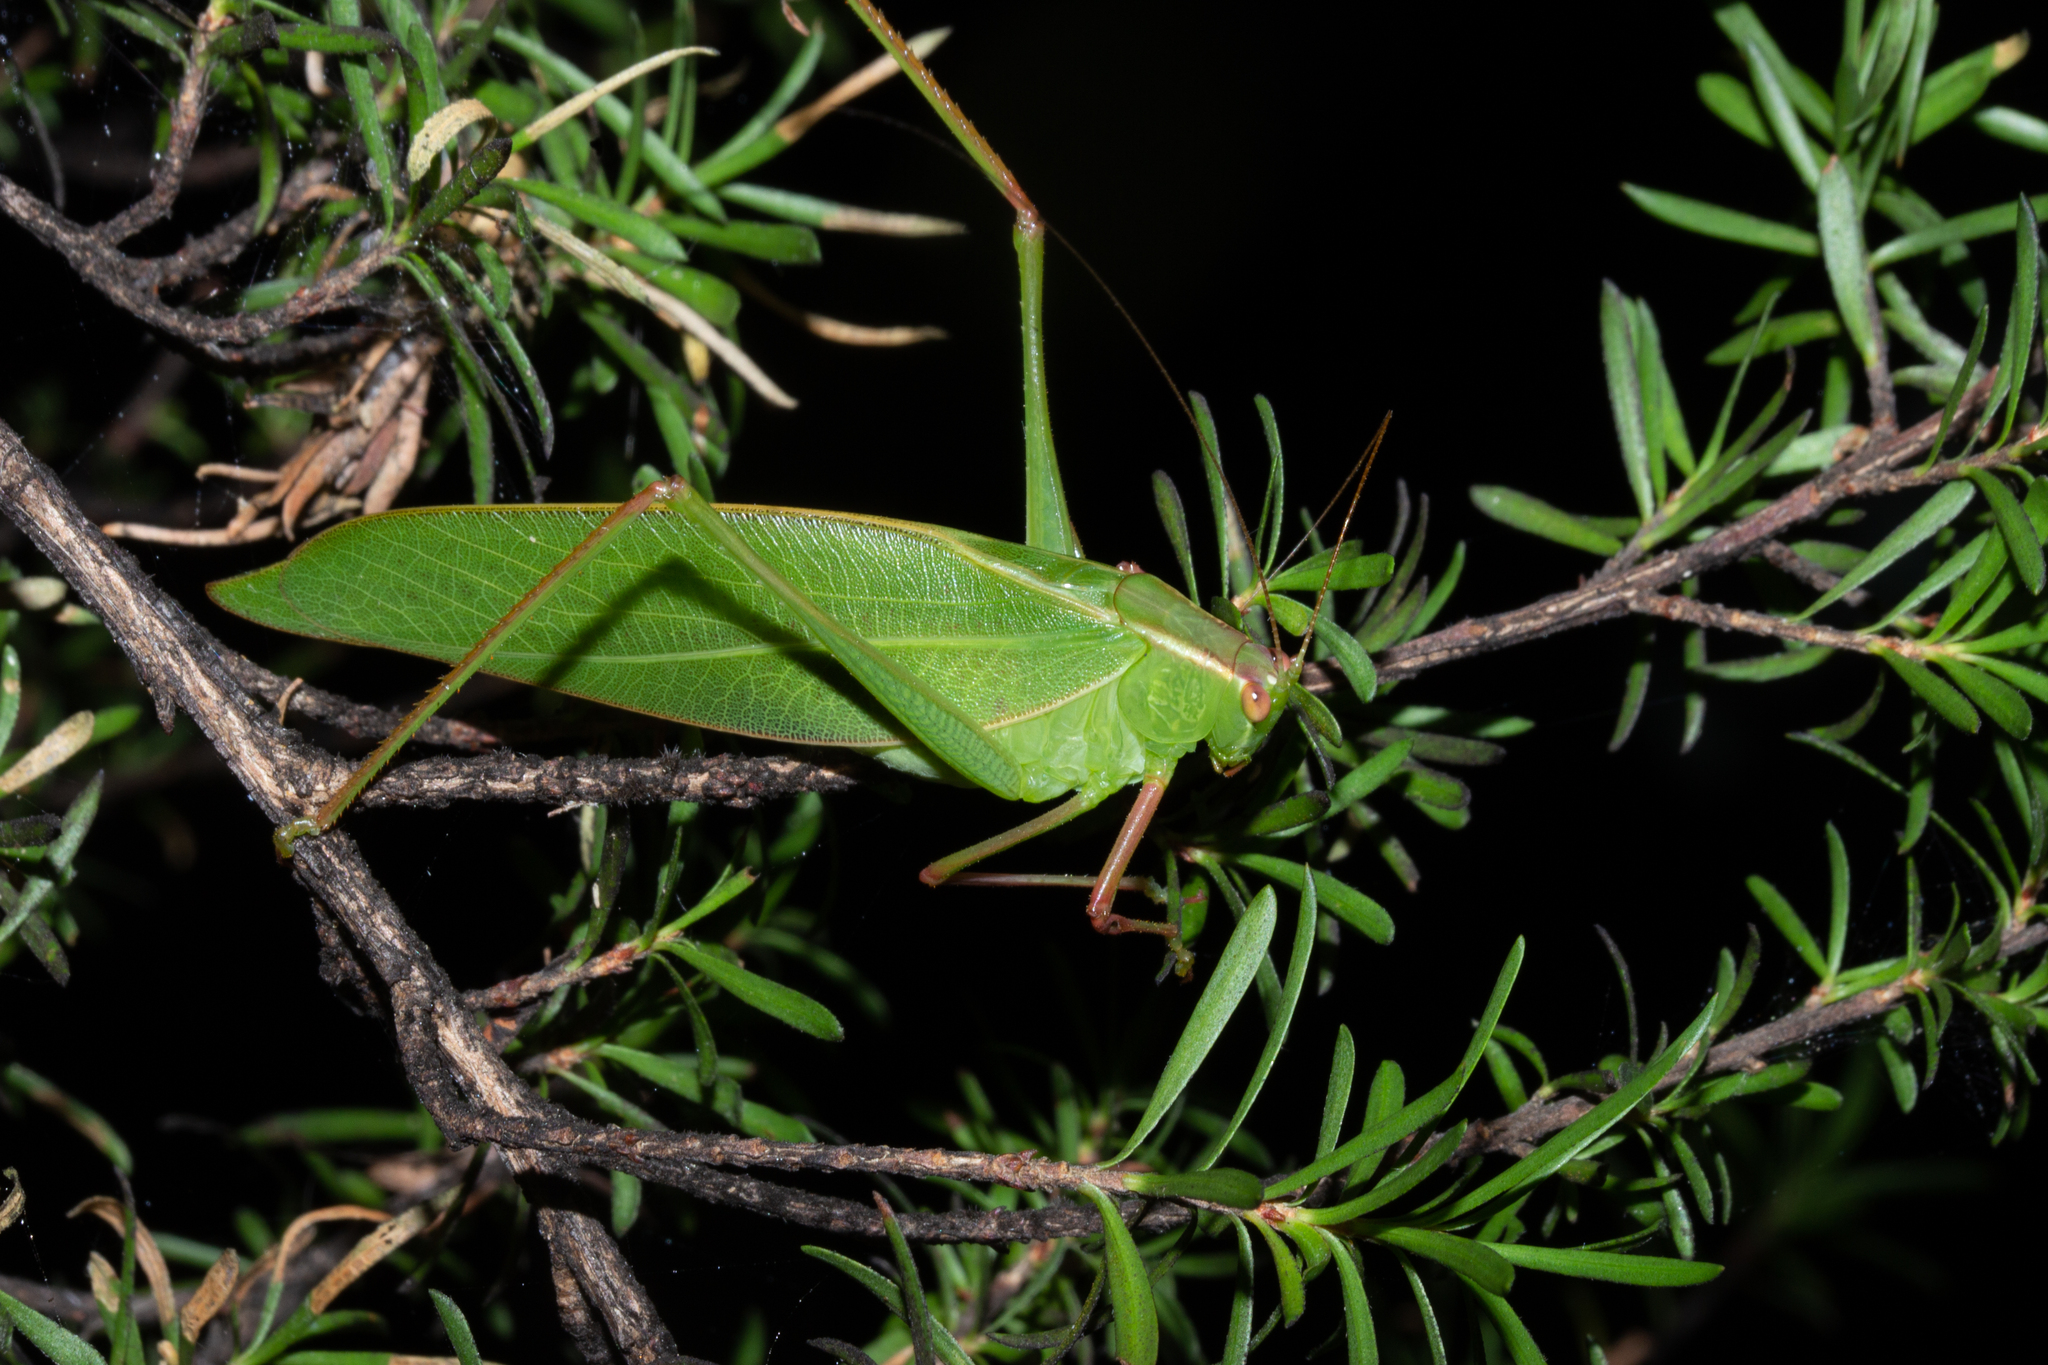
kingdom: Animalia
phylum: Arthropoda
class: Insecta
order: Orthoptera
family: Tettigoniidae
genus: Caedicia
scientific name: Caedicia simplex
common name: Common garden katydid
